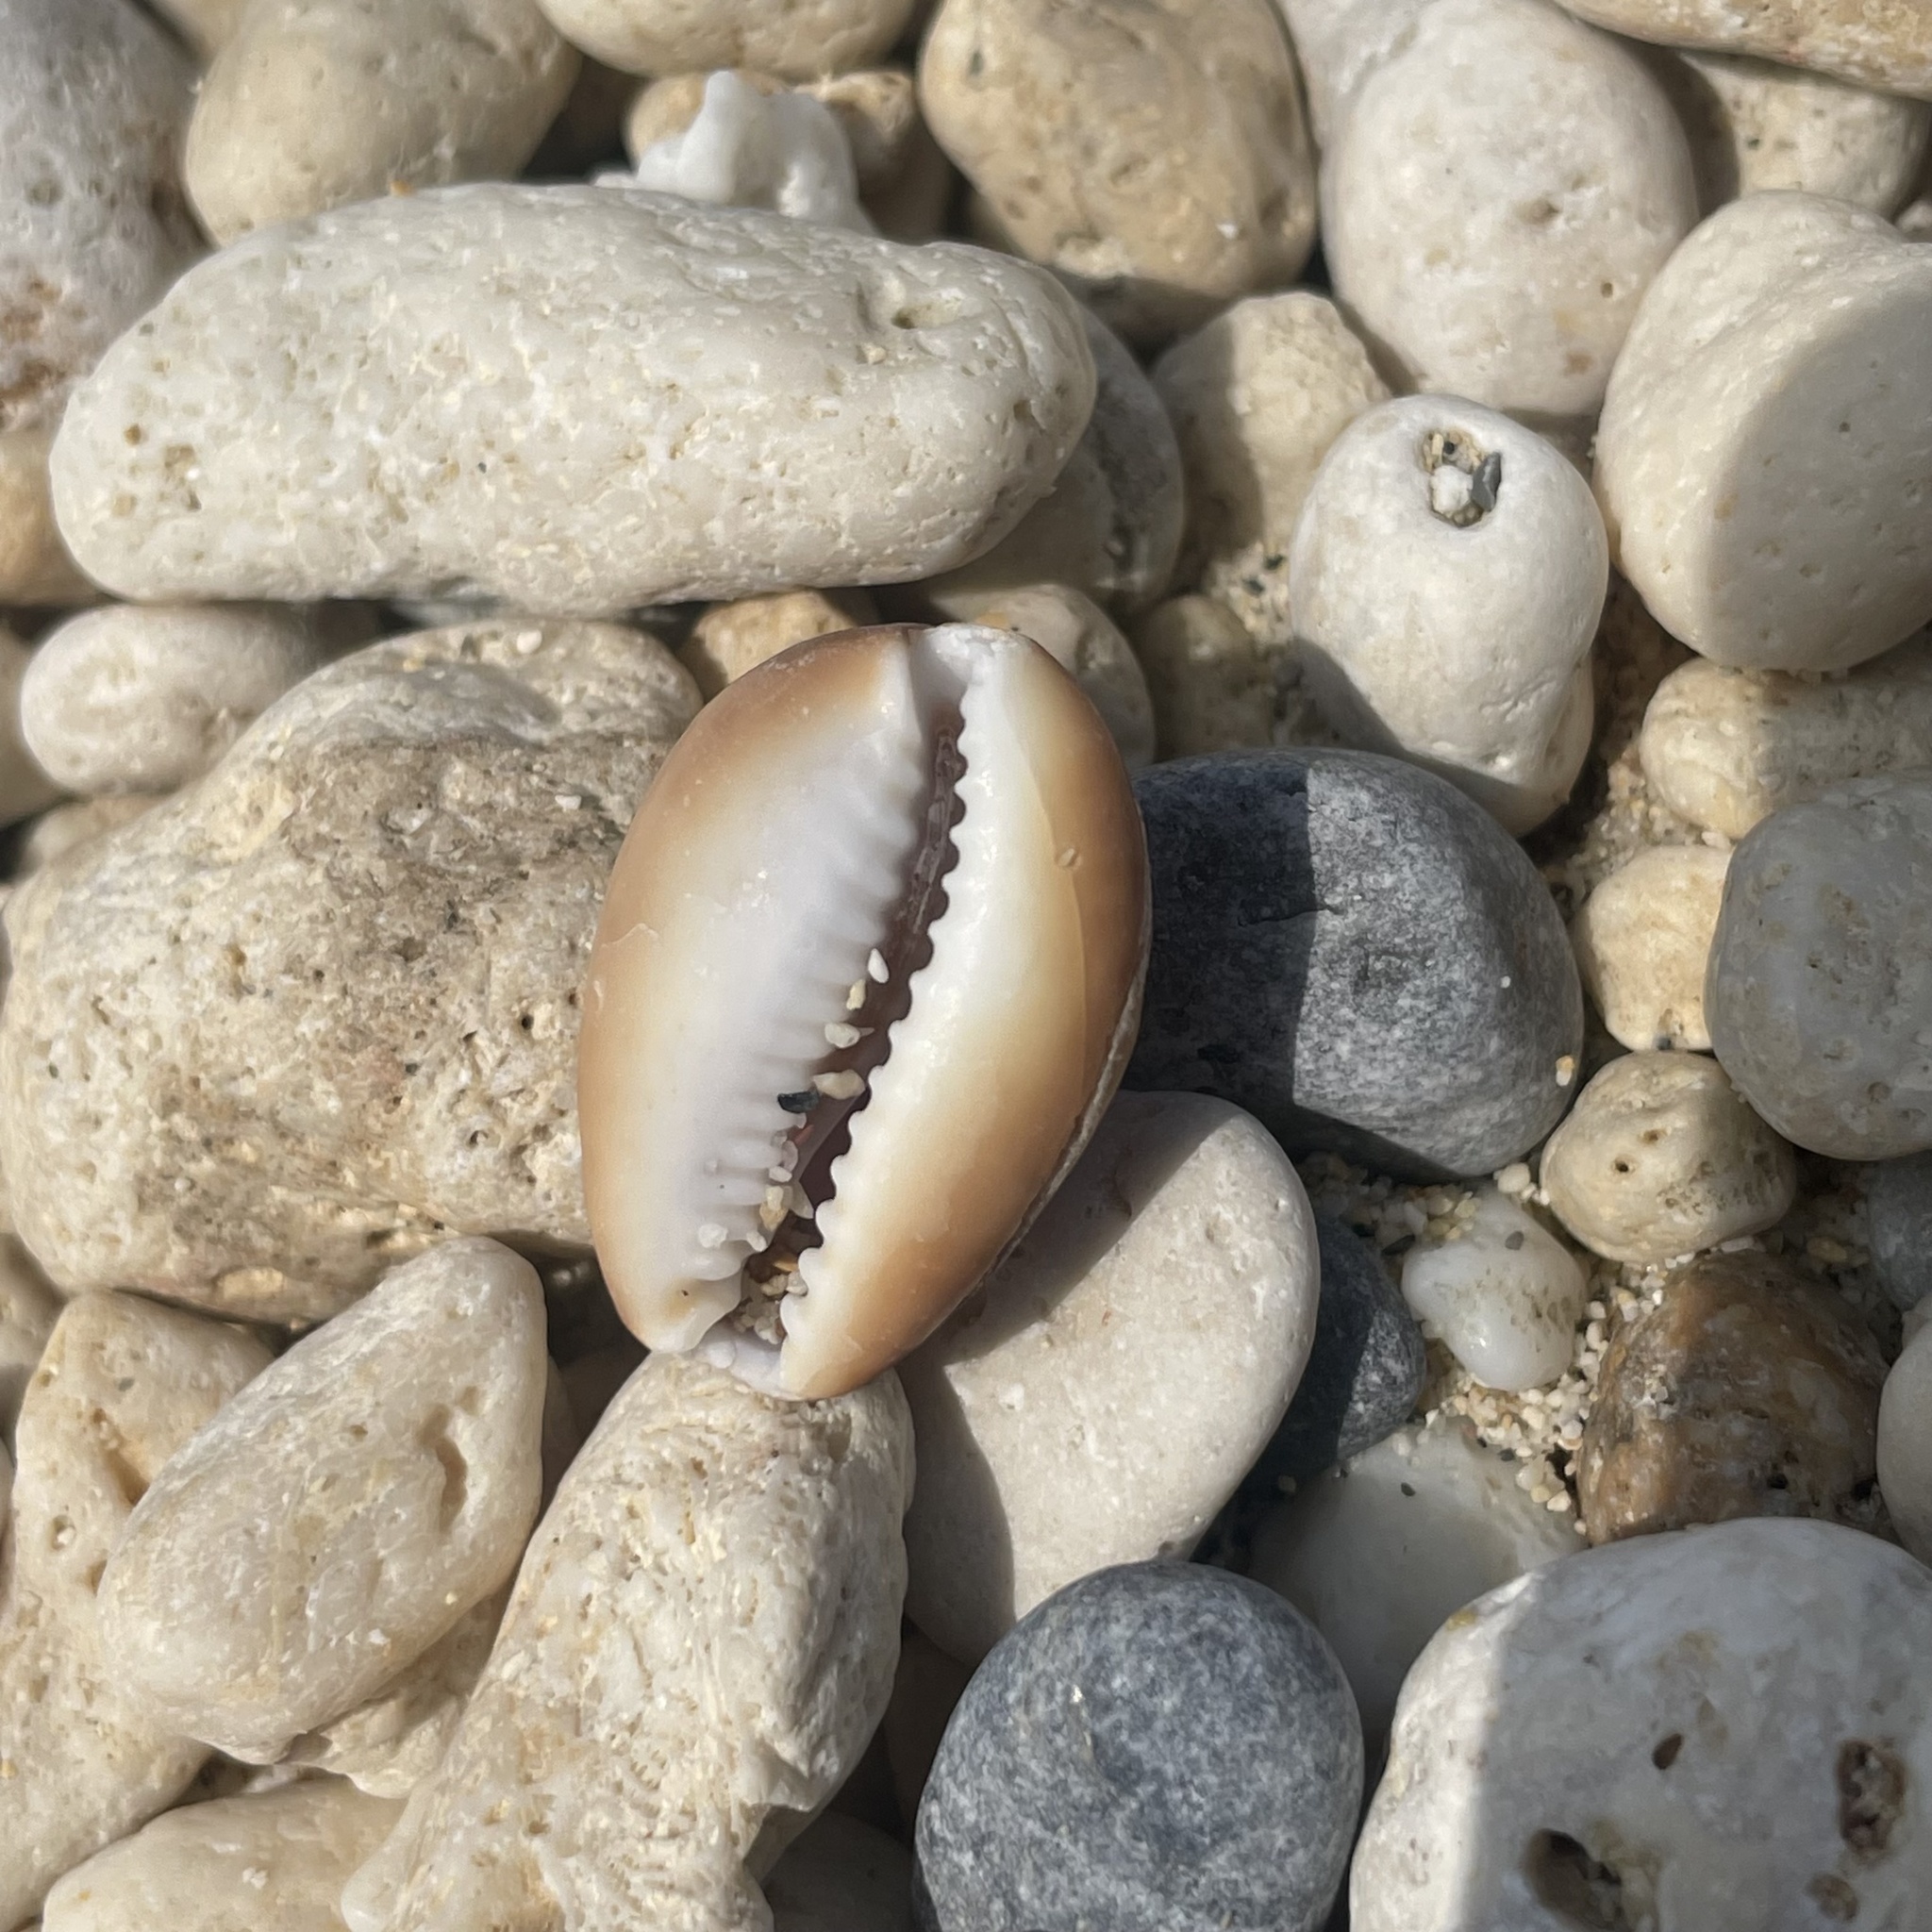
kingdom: Animalia
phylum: Mollusca
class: Gastropoda
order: Littorinimorpha
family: Cypraeidae
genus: Monetaria
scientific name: Monetaria caputserpentis
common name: Serpent's head cowrie
